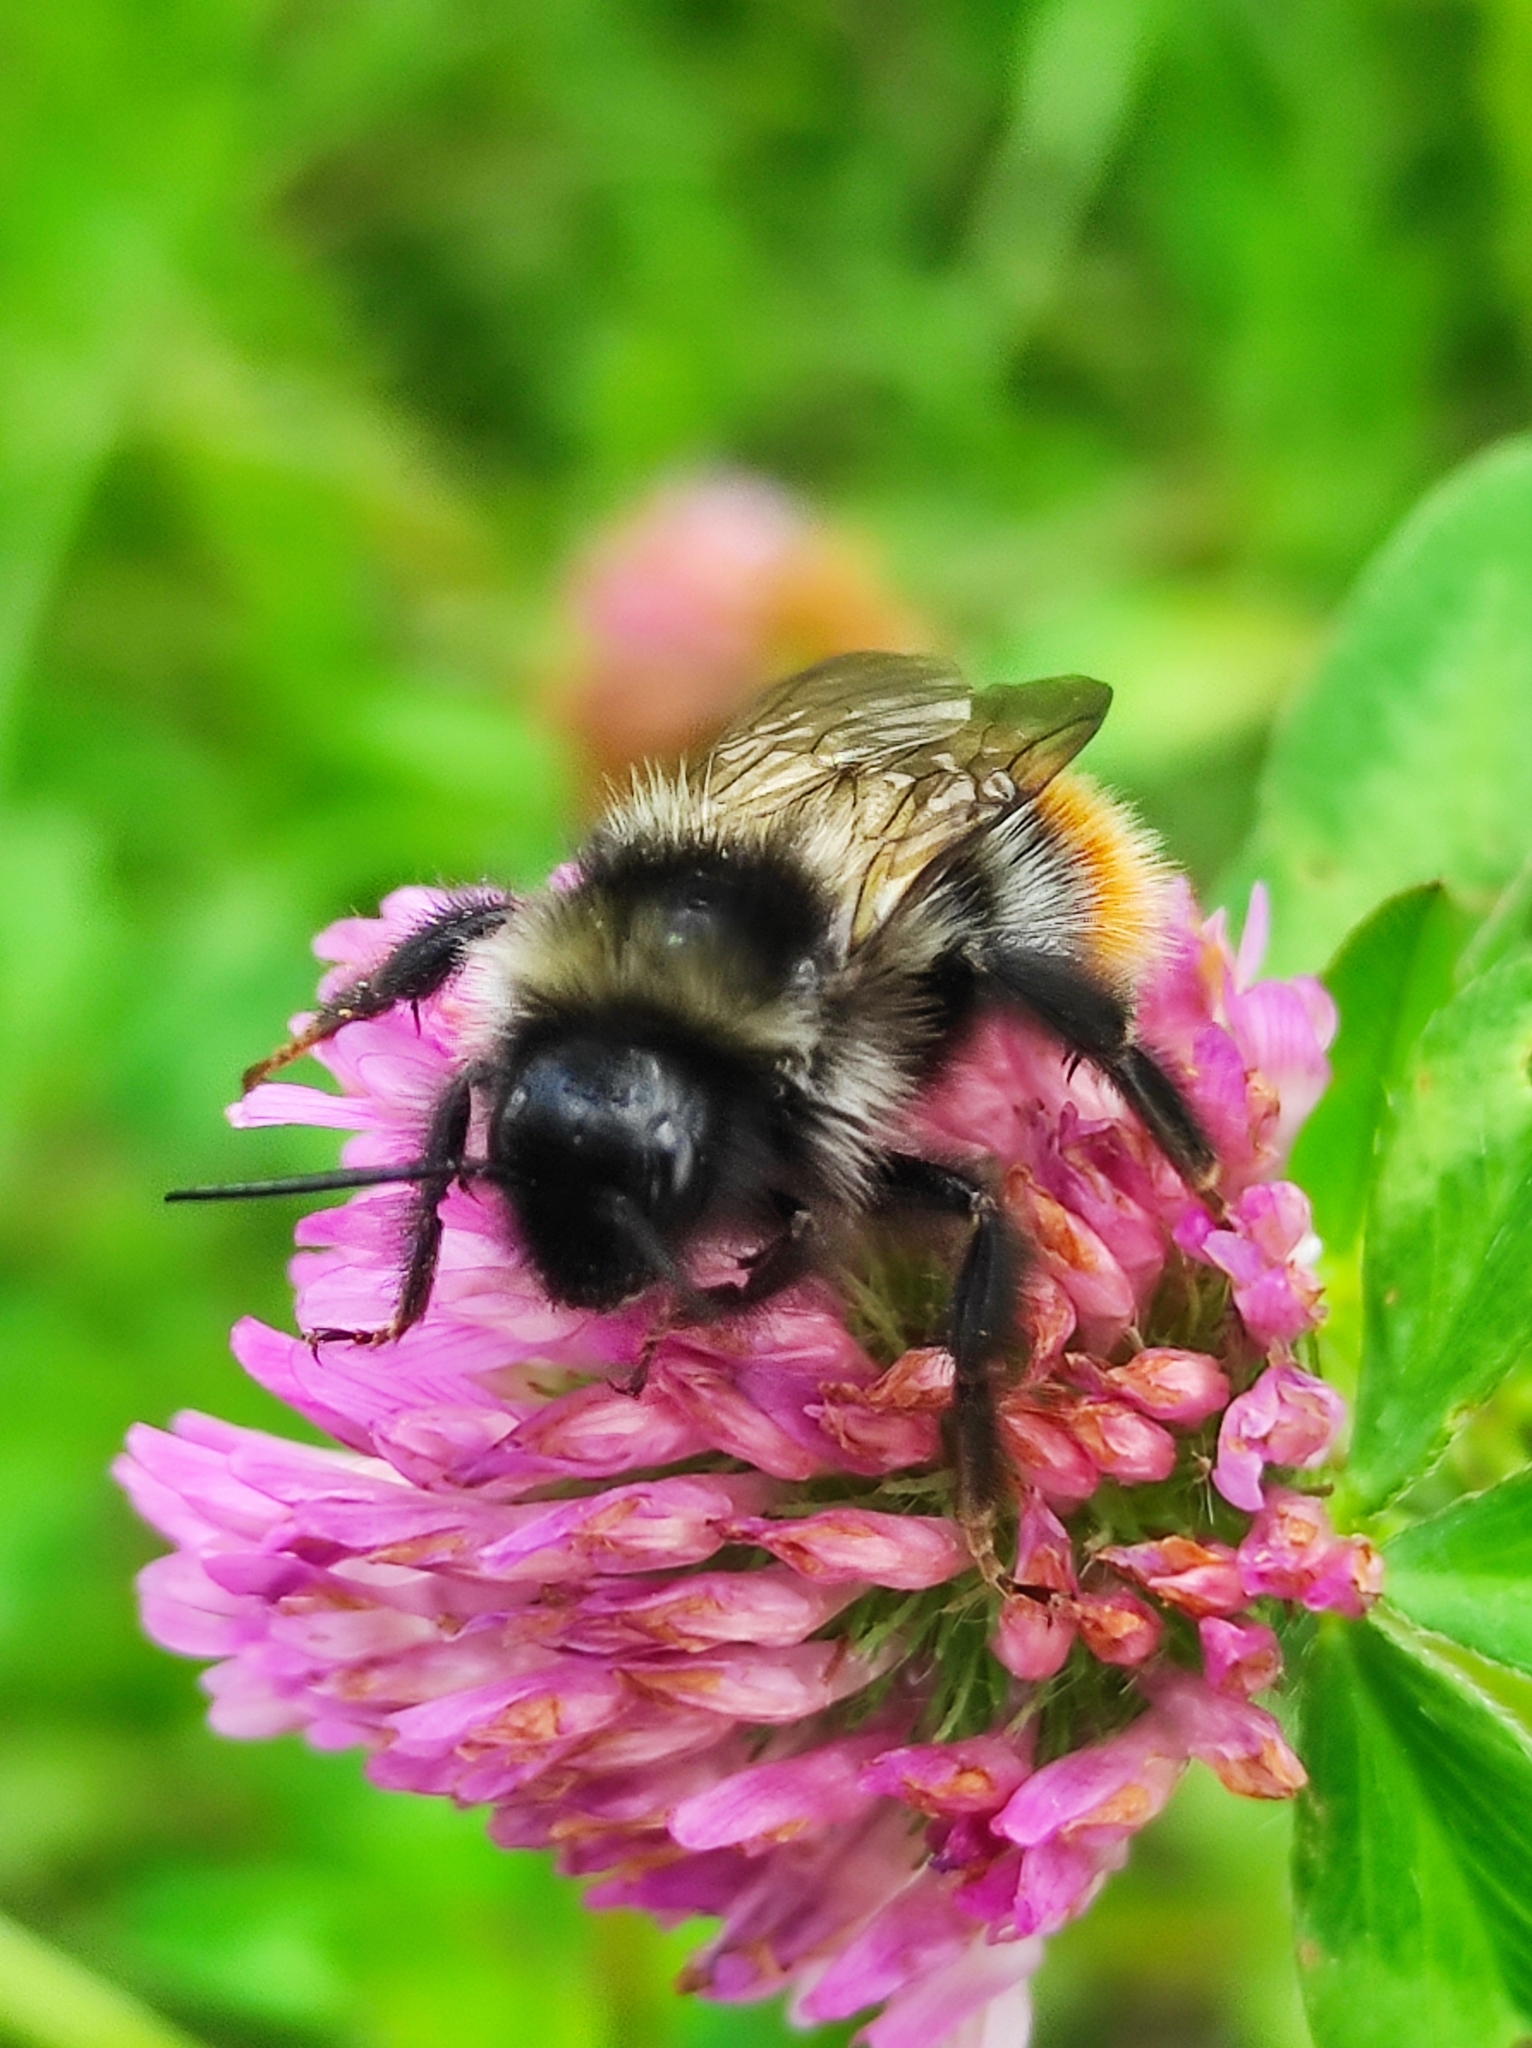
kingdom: Animalia
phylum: Arthropoda
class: Insecta
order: Hymenoptera
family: Apidae
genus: Bombus
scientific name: Bombus rupestris
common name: Hill cuckoo-bee
